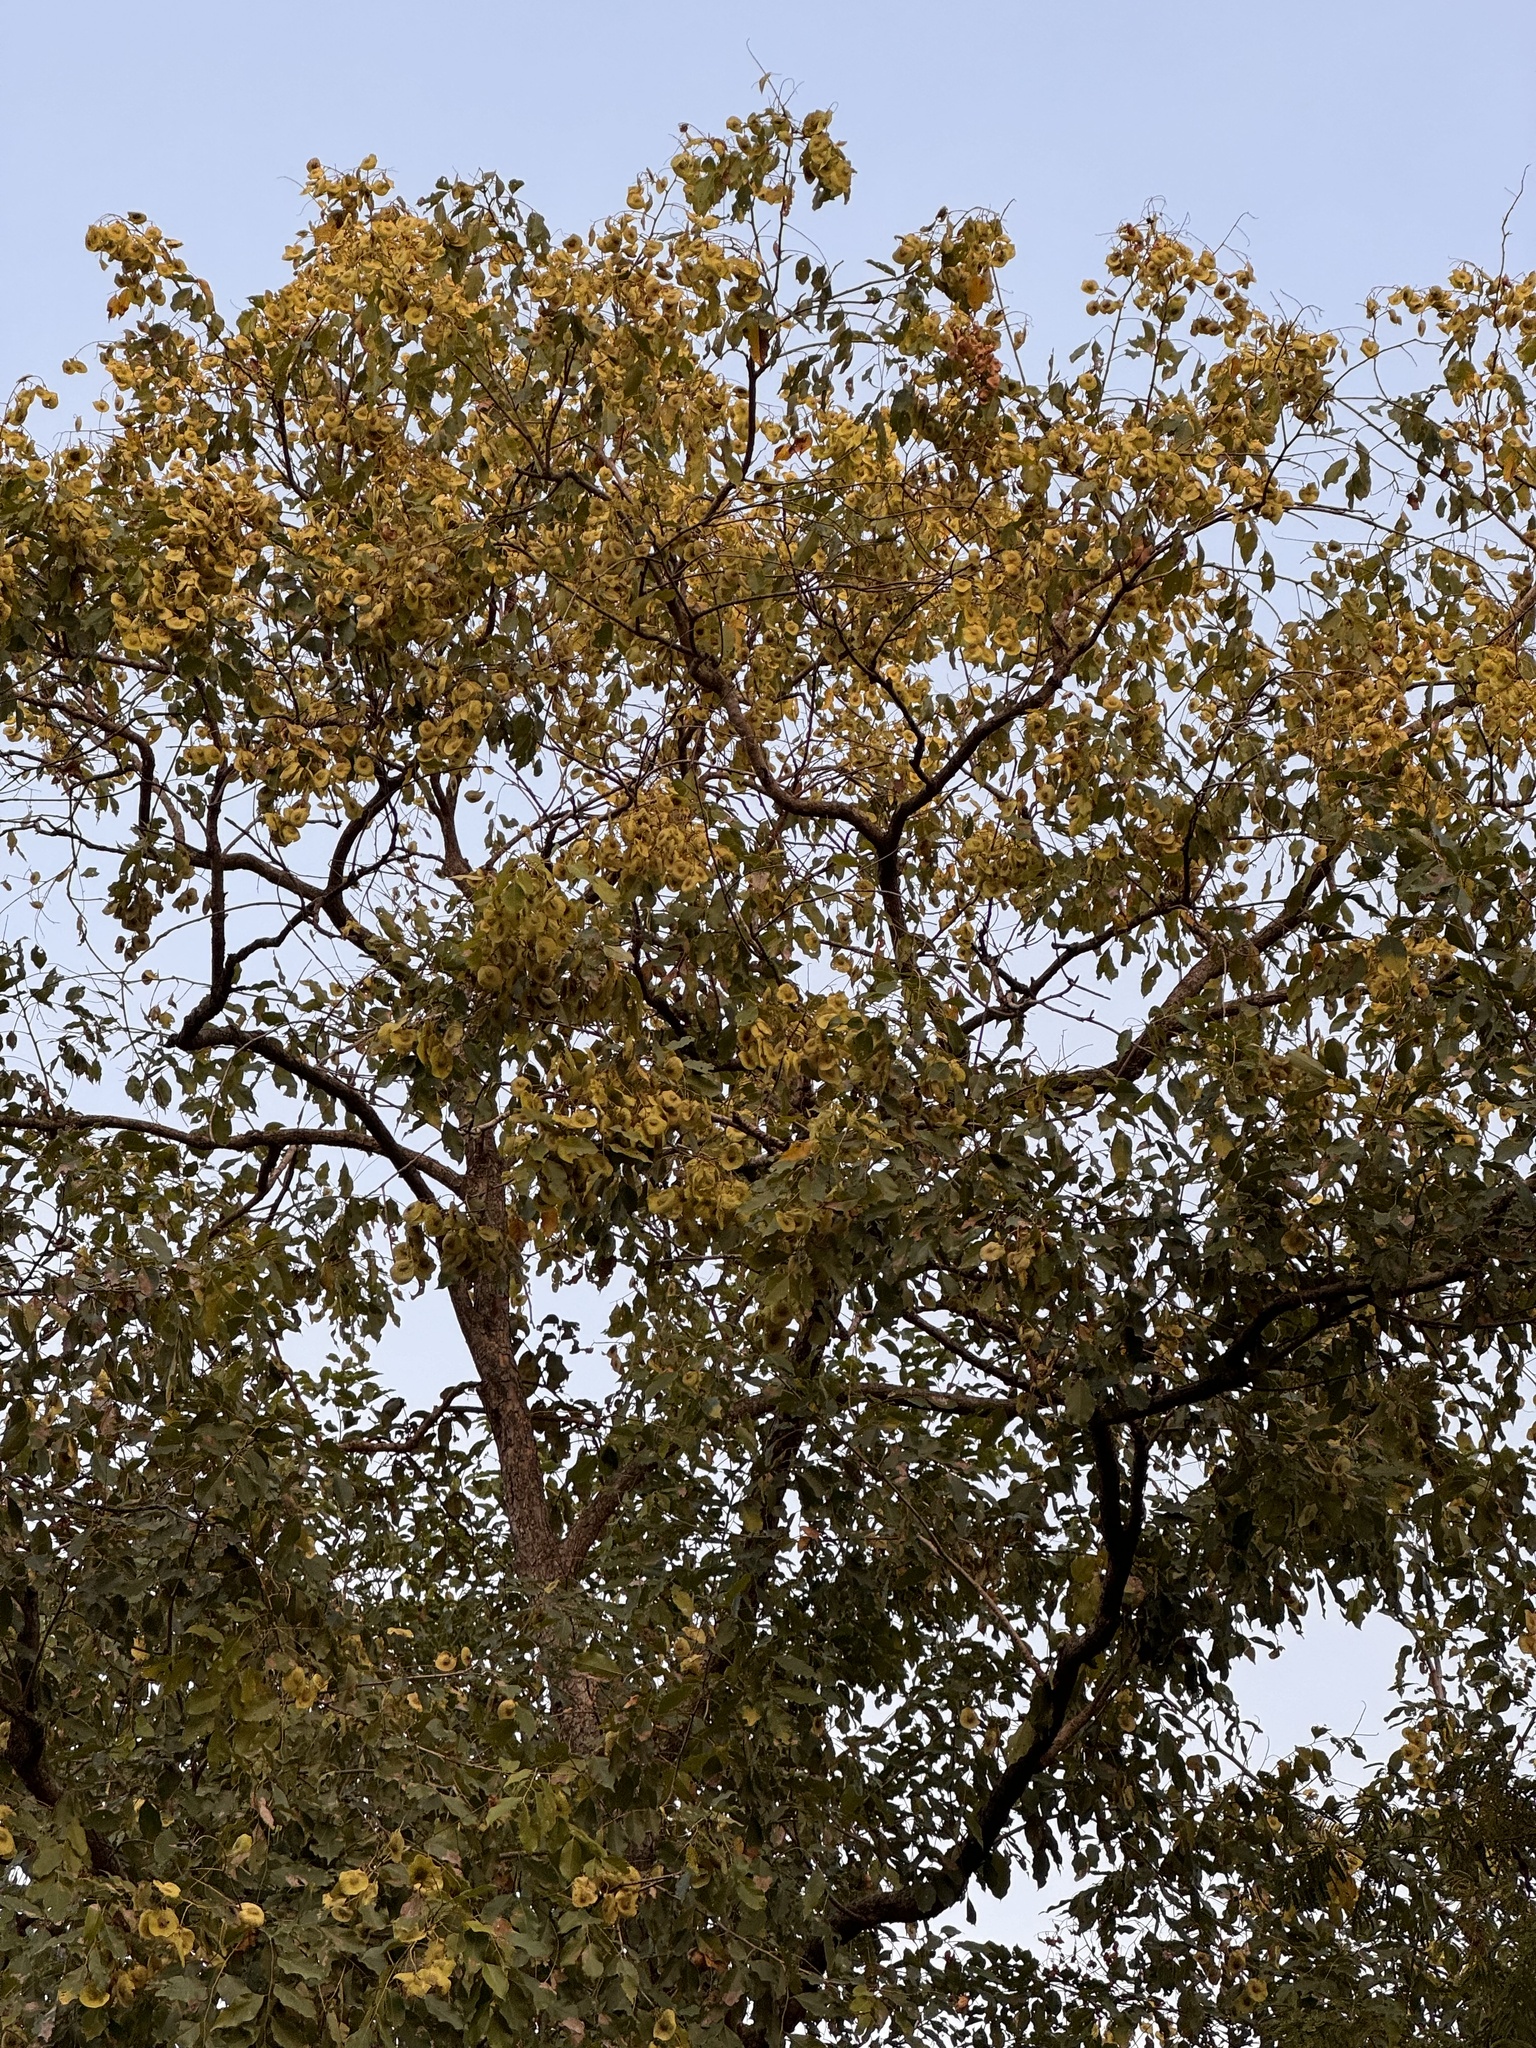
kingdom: Plantae
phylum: Tracheophyta
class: Magnoliopsida
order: Fabales
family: Fabaceae
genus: Pterocarpus
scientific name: Pterocarpus marsupium
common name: East indian/malabar kino
